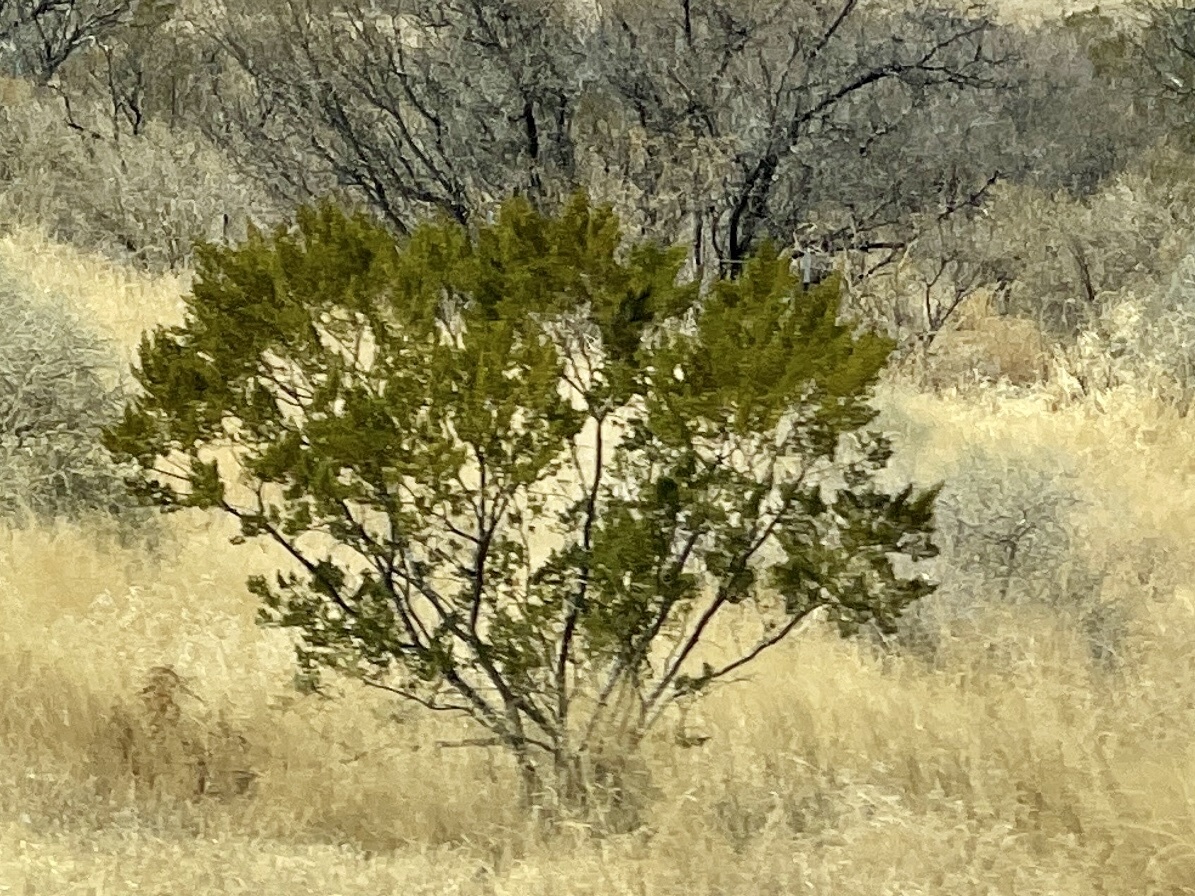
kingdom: Plantae
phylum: Tracheophyta
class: Magnoliopsida
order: Zygophyllales
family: Zygophyllaceae
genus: Larrea
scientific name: Larrea tridentata
